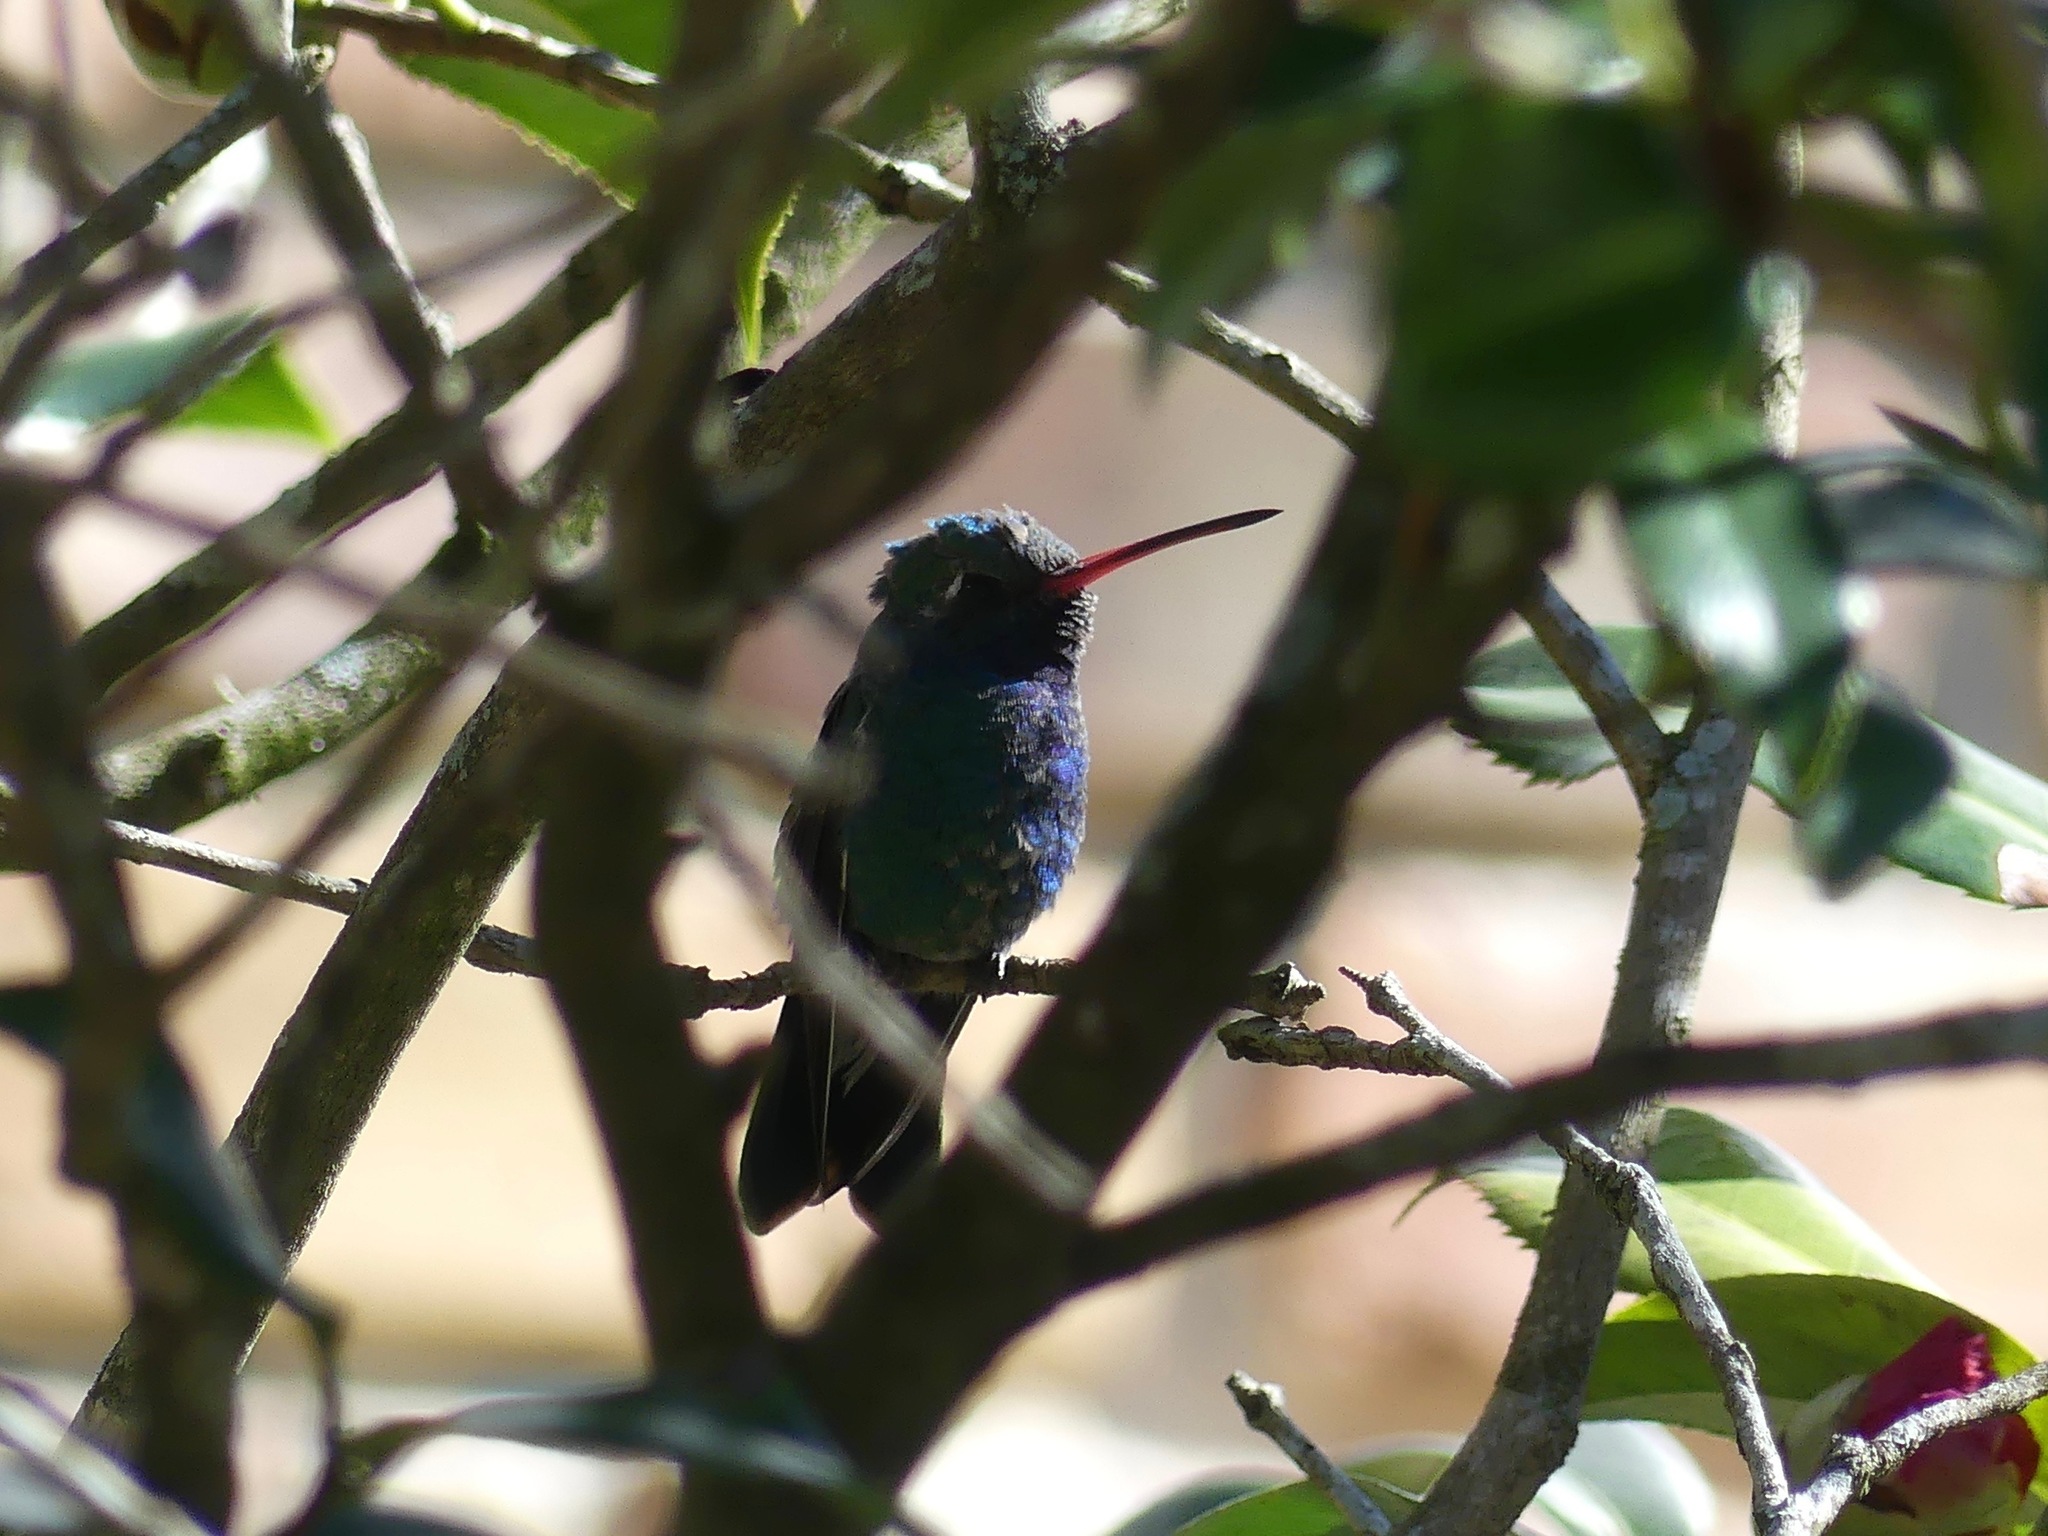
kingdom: Animalia
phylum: Chordata
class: Aves
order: Apodiformes
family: Trochilidae
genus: Cynanthus
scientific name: Cynanthus latirostris
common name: Broad-billed hummingbird
